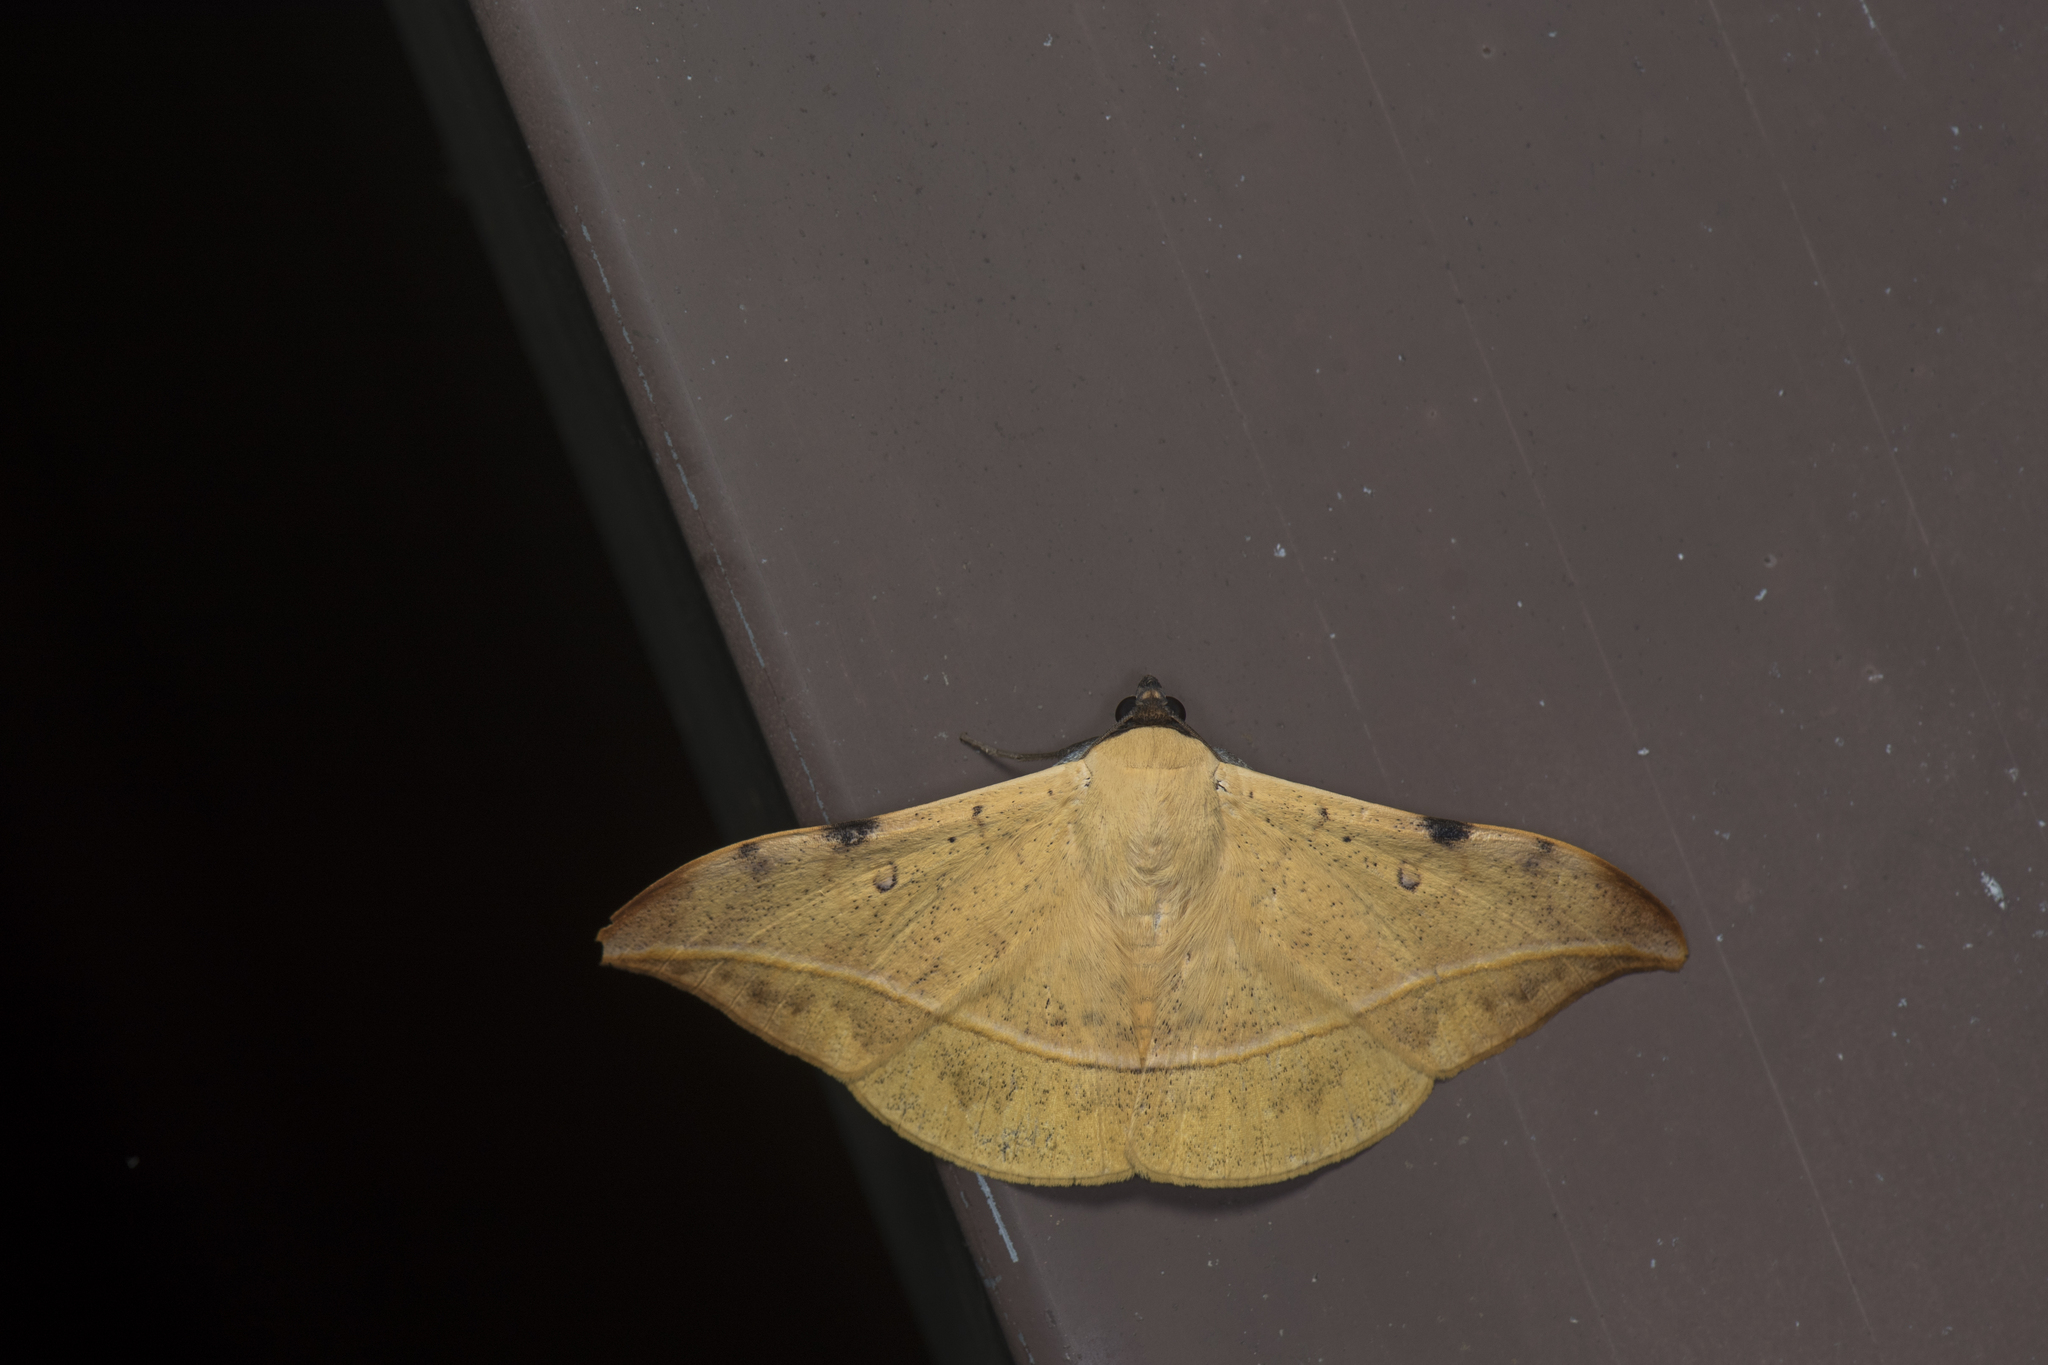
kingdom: Animalia
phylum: Arthropoda
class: Insecta
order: Lepidoptera
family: Erebidae
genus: Hamodes
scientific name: Hamodes propitia
